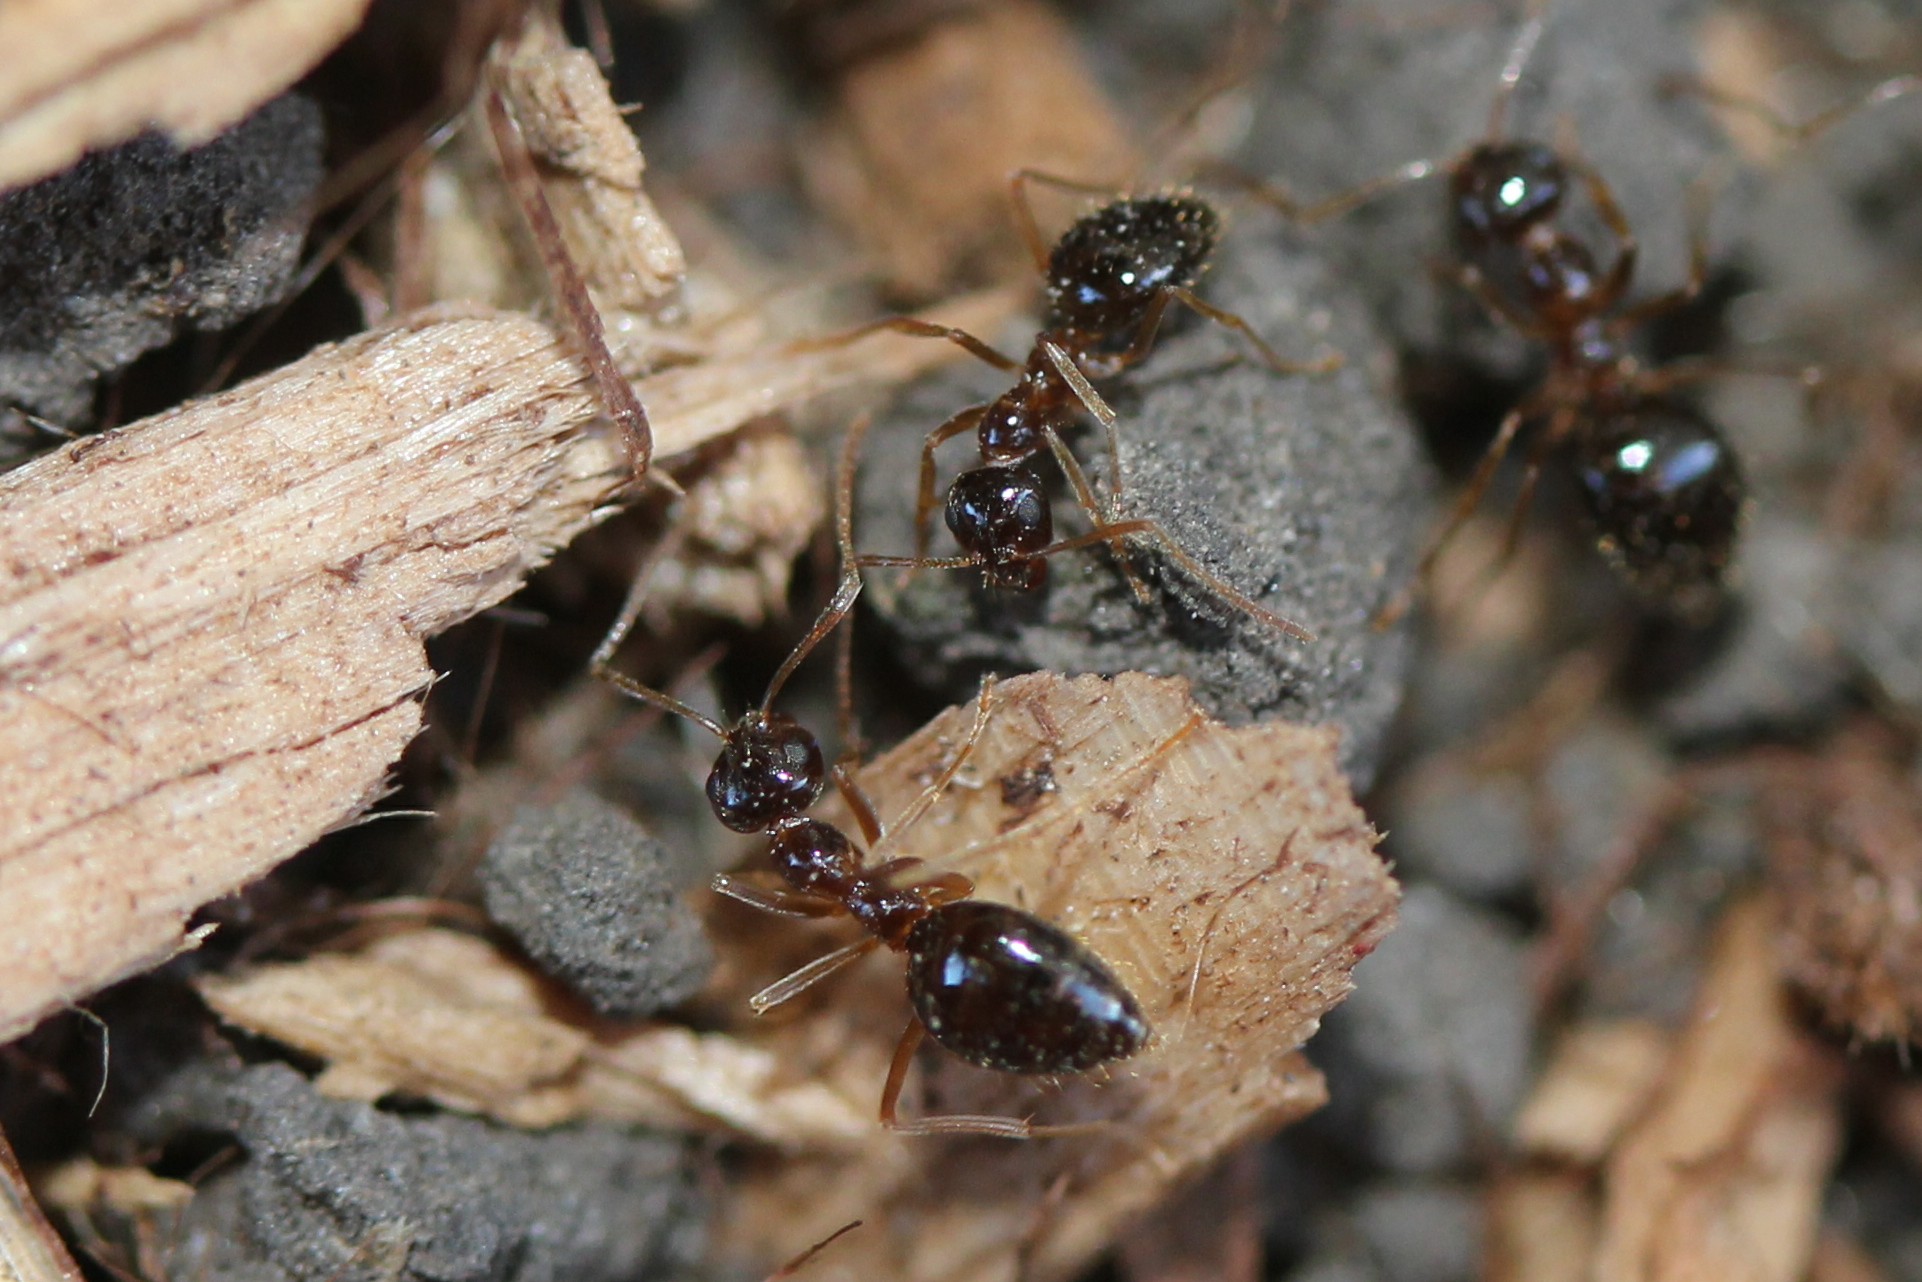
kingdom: Animalia
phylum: Arthropoda
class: Insecta
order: Hymenoptera
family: Formicidae
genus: Prenolepis
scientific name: Prenolepis imparis
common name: Small honey ant
